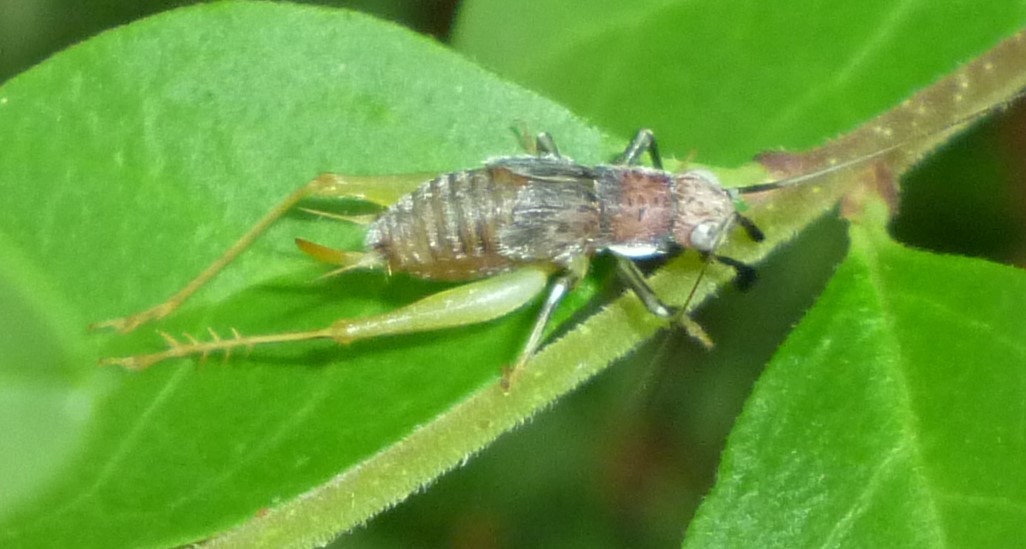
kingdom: Animalia
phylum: Arthropoda
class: Insecta
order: Orthoptera
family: Trigonidiidae
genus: Phyllopalpus
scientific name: Phyllopalpus pulchellus
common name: Handsome trig
